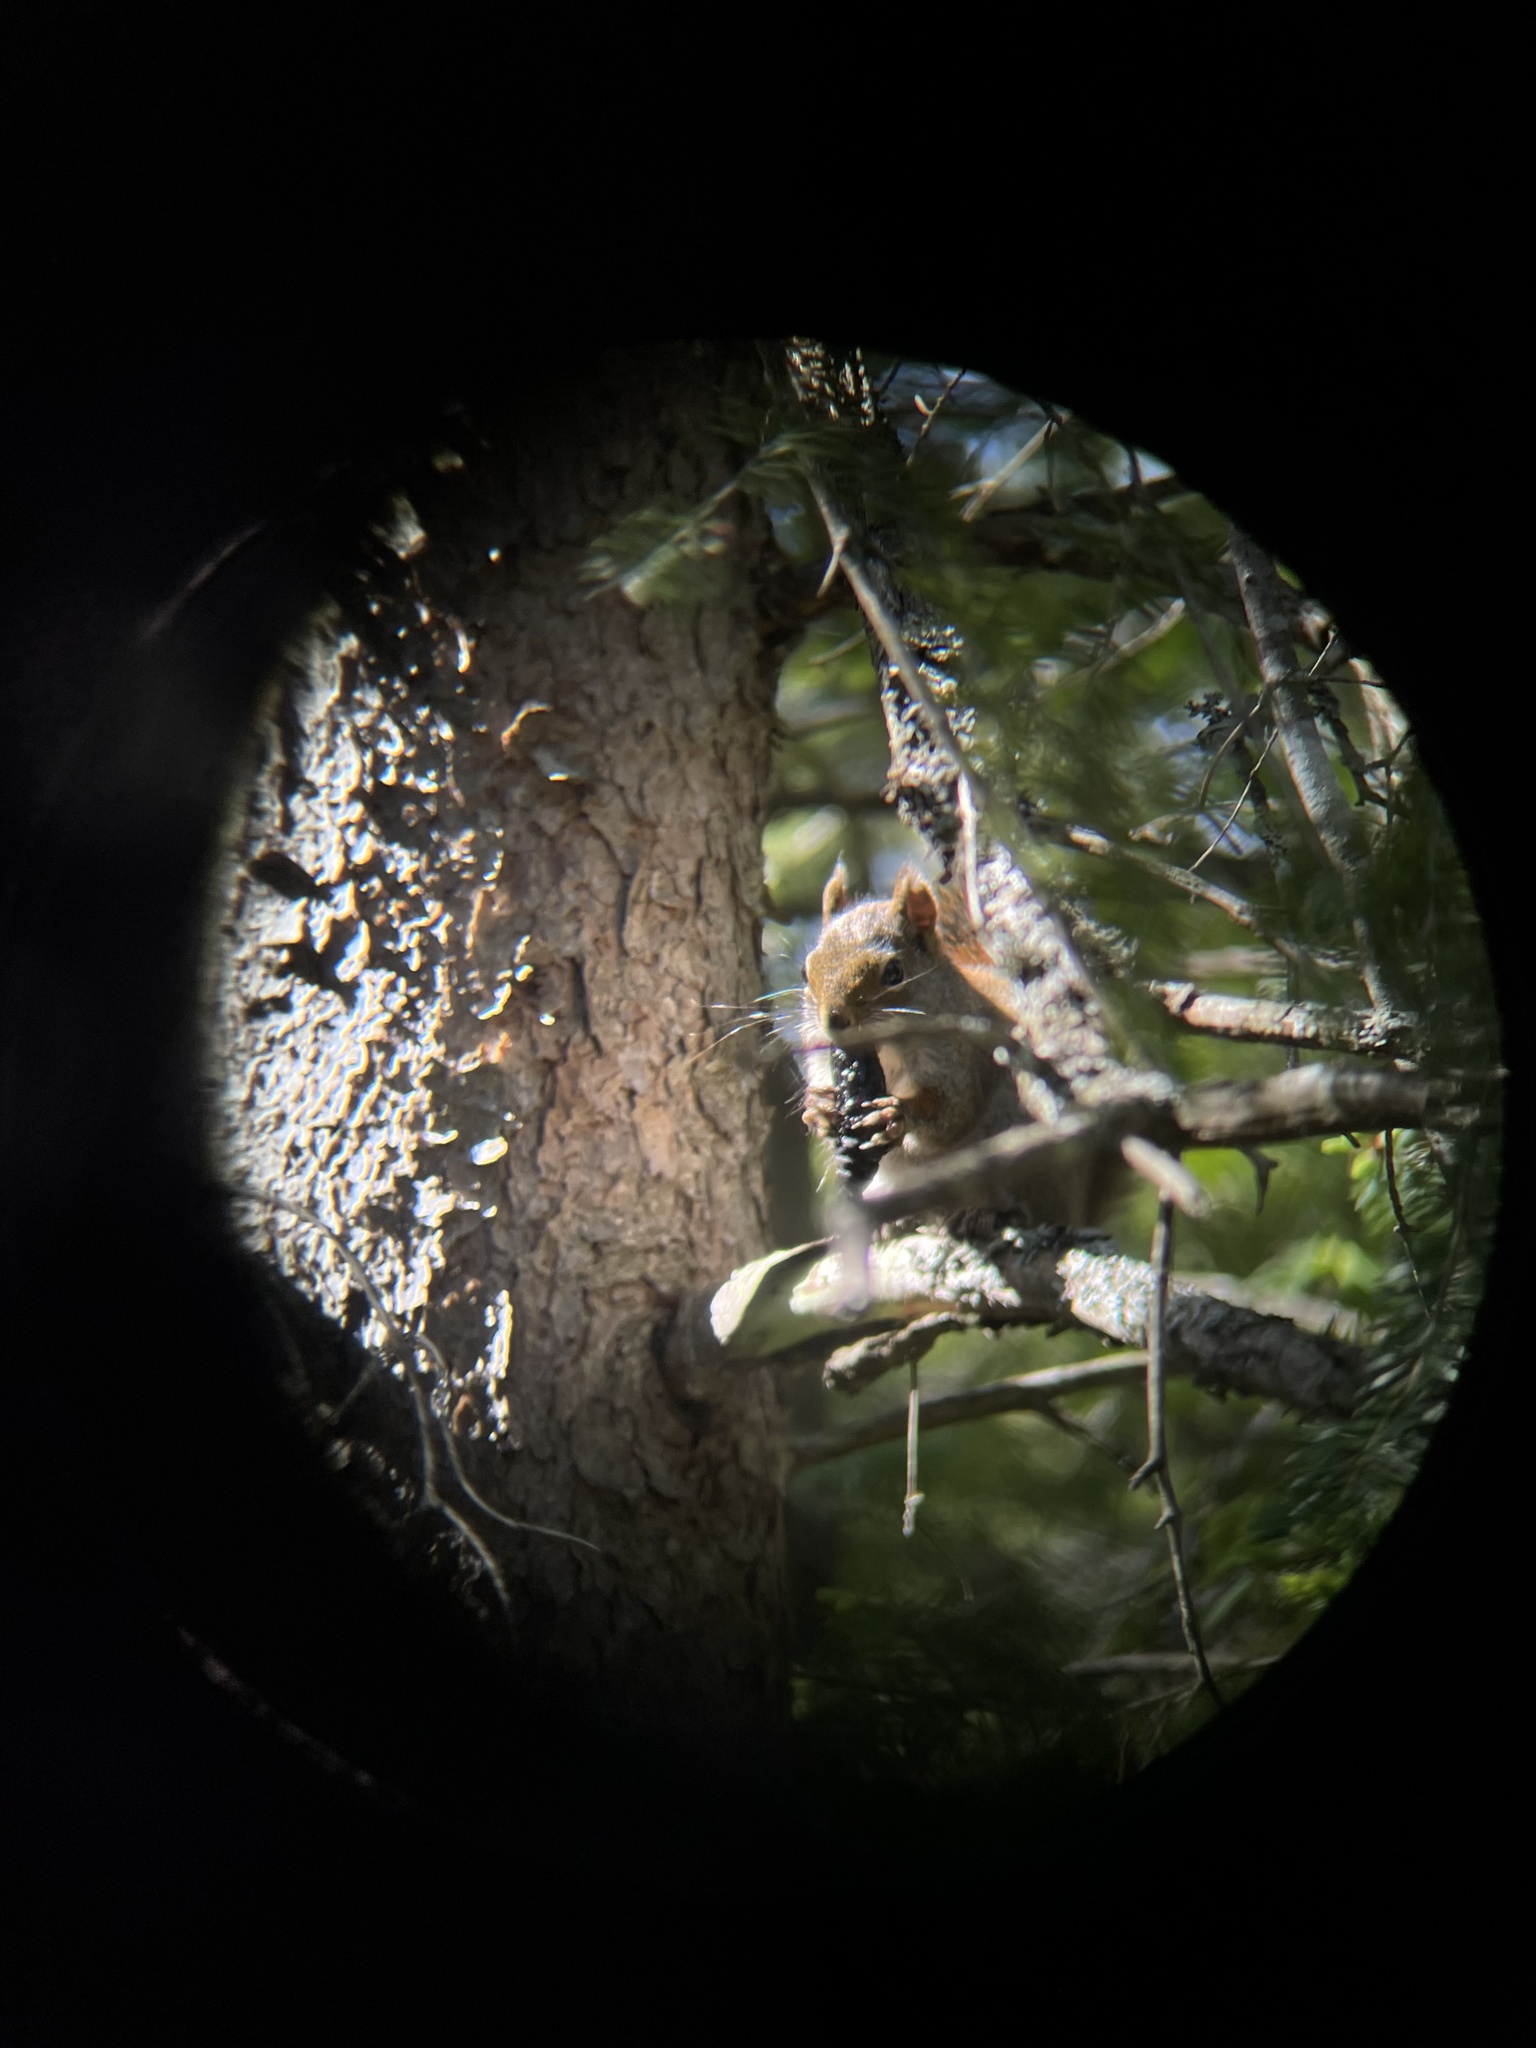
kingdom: Animalia
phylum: Chordata
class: Mammalia
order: Rodentia
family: Sciuridae
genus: Tamiasciurus
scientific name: Tamiasciurus hudsonicus
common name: Red squirrel
